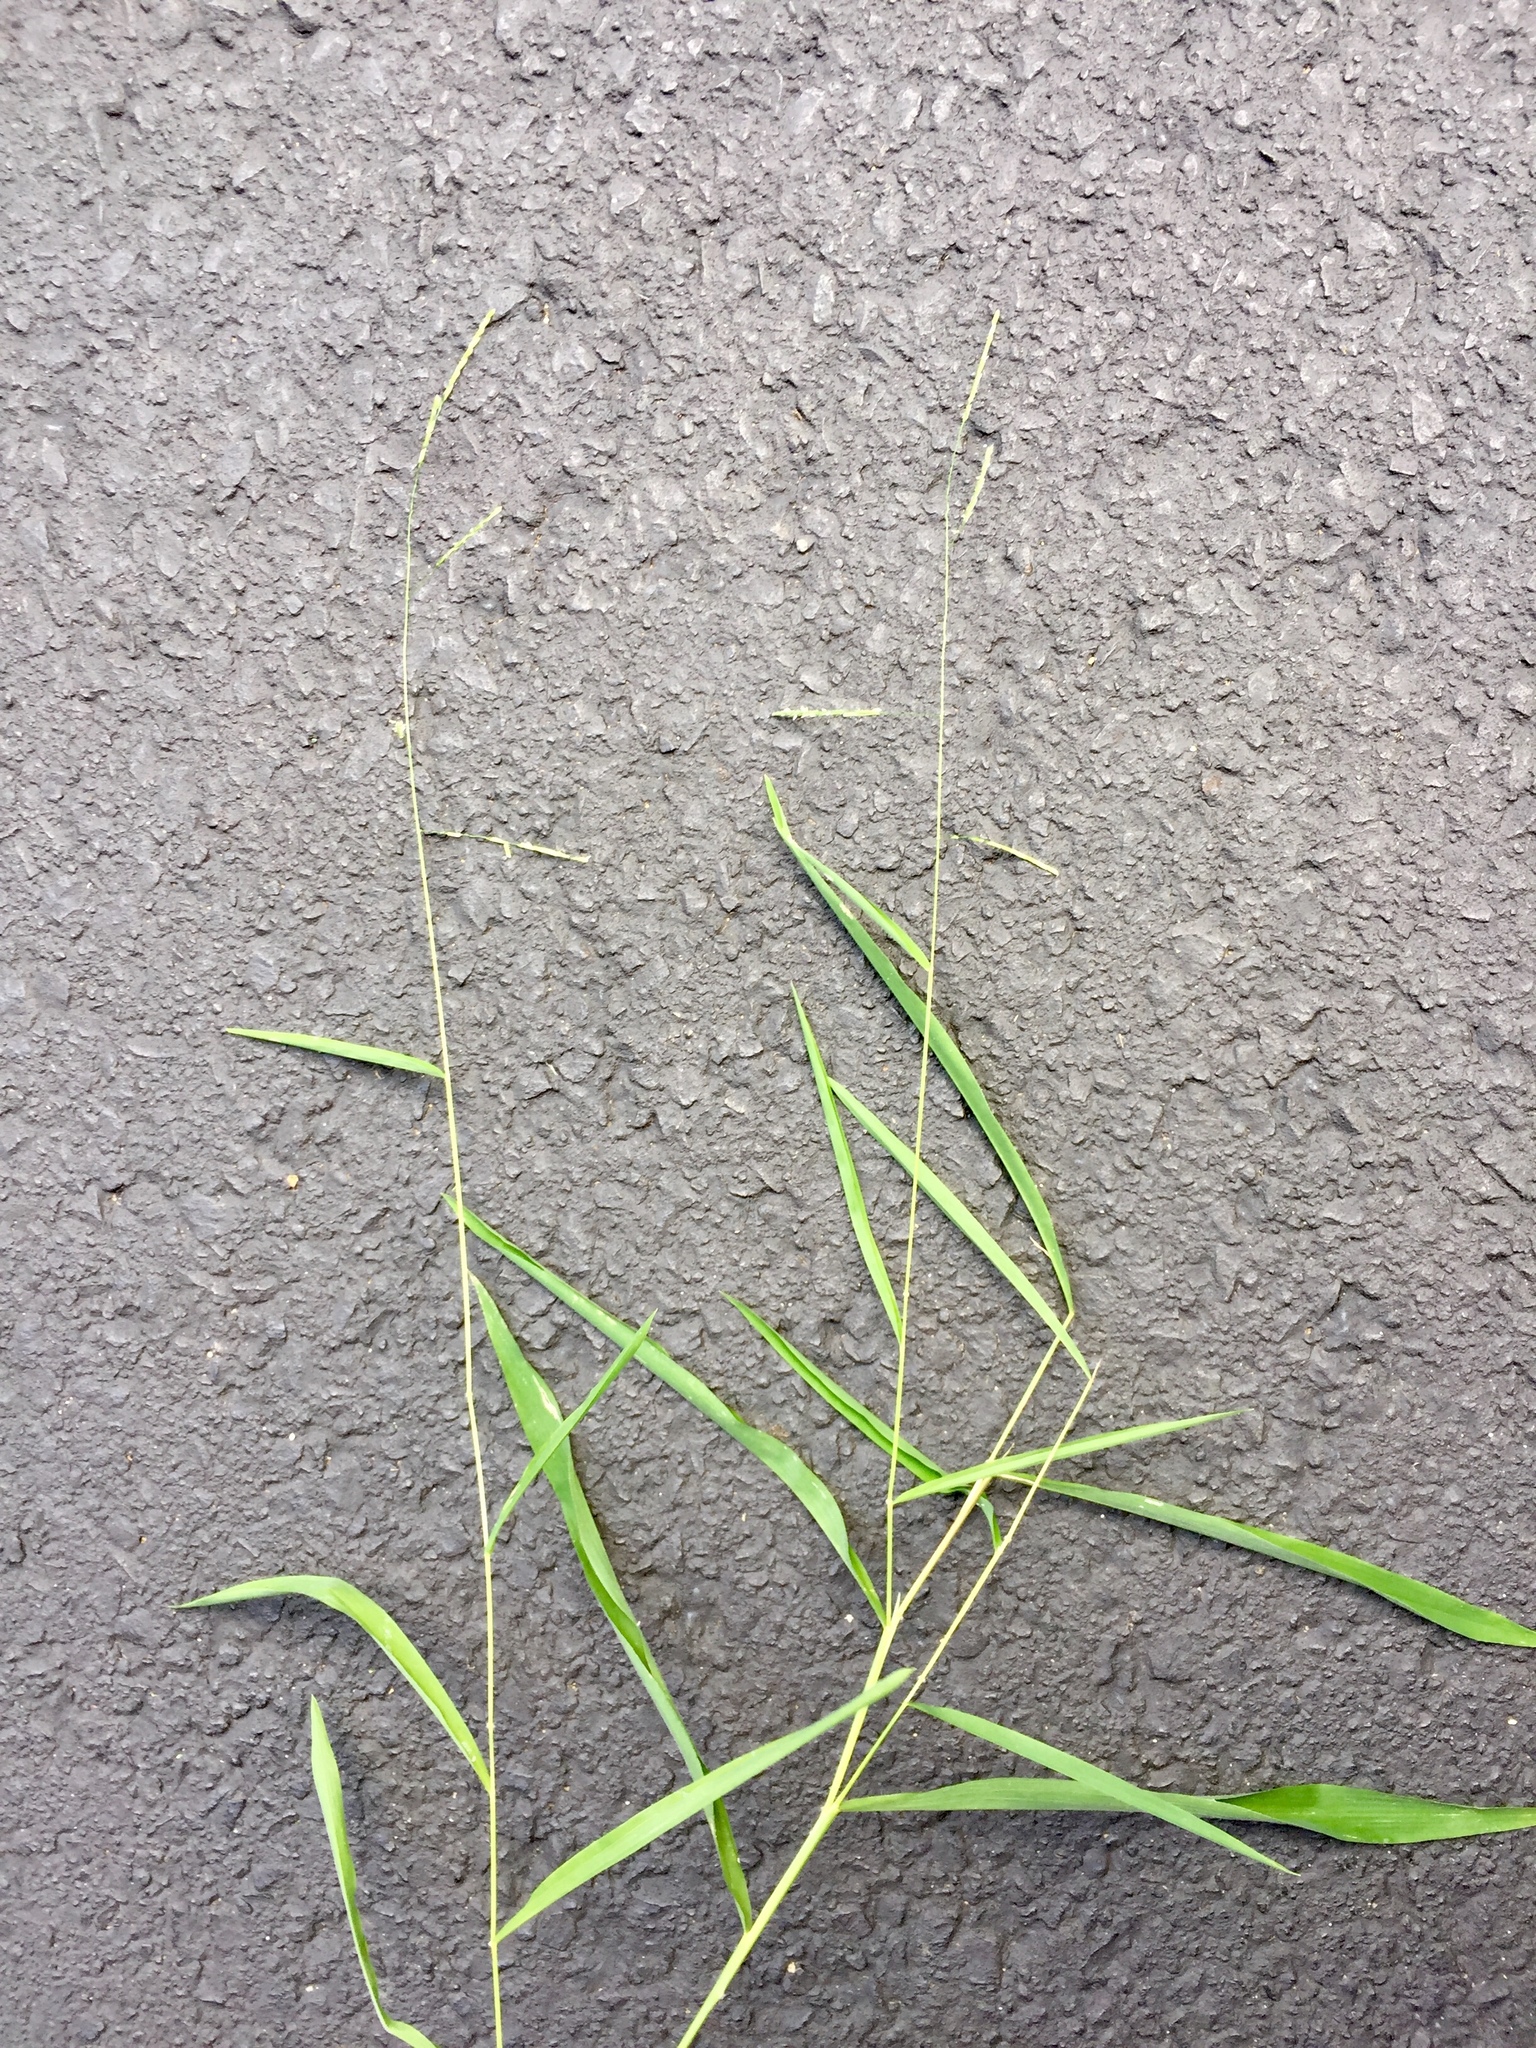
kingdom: Plantae
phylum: Tracheophyta
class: Liliopsida
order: Poales
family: Poaceae
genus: Leersia
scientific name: Leersia virginica
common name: White cutgrass
